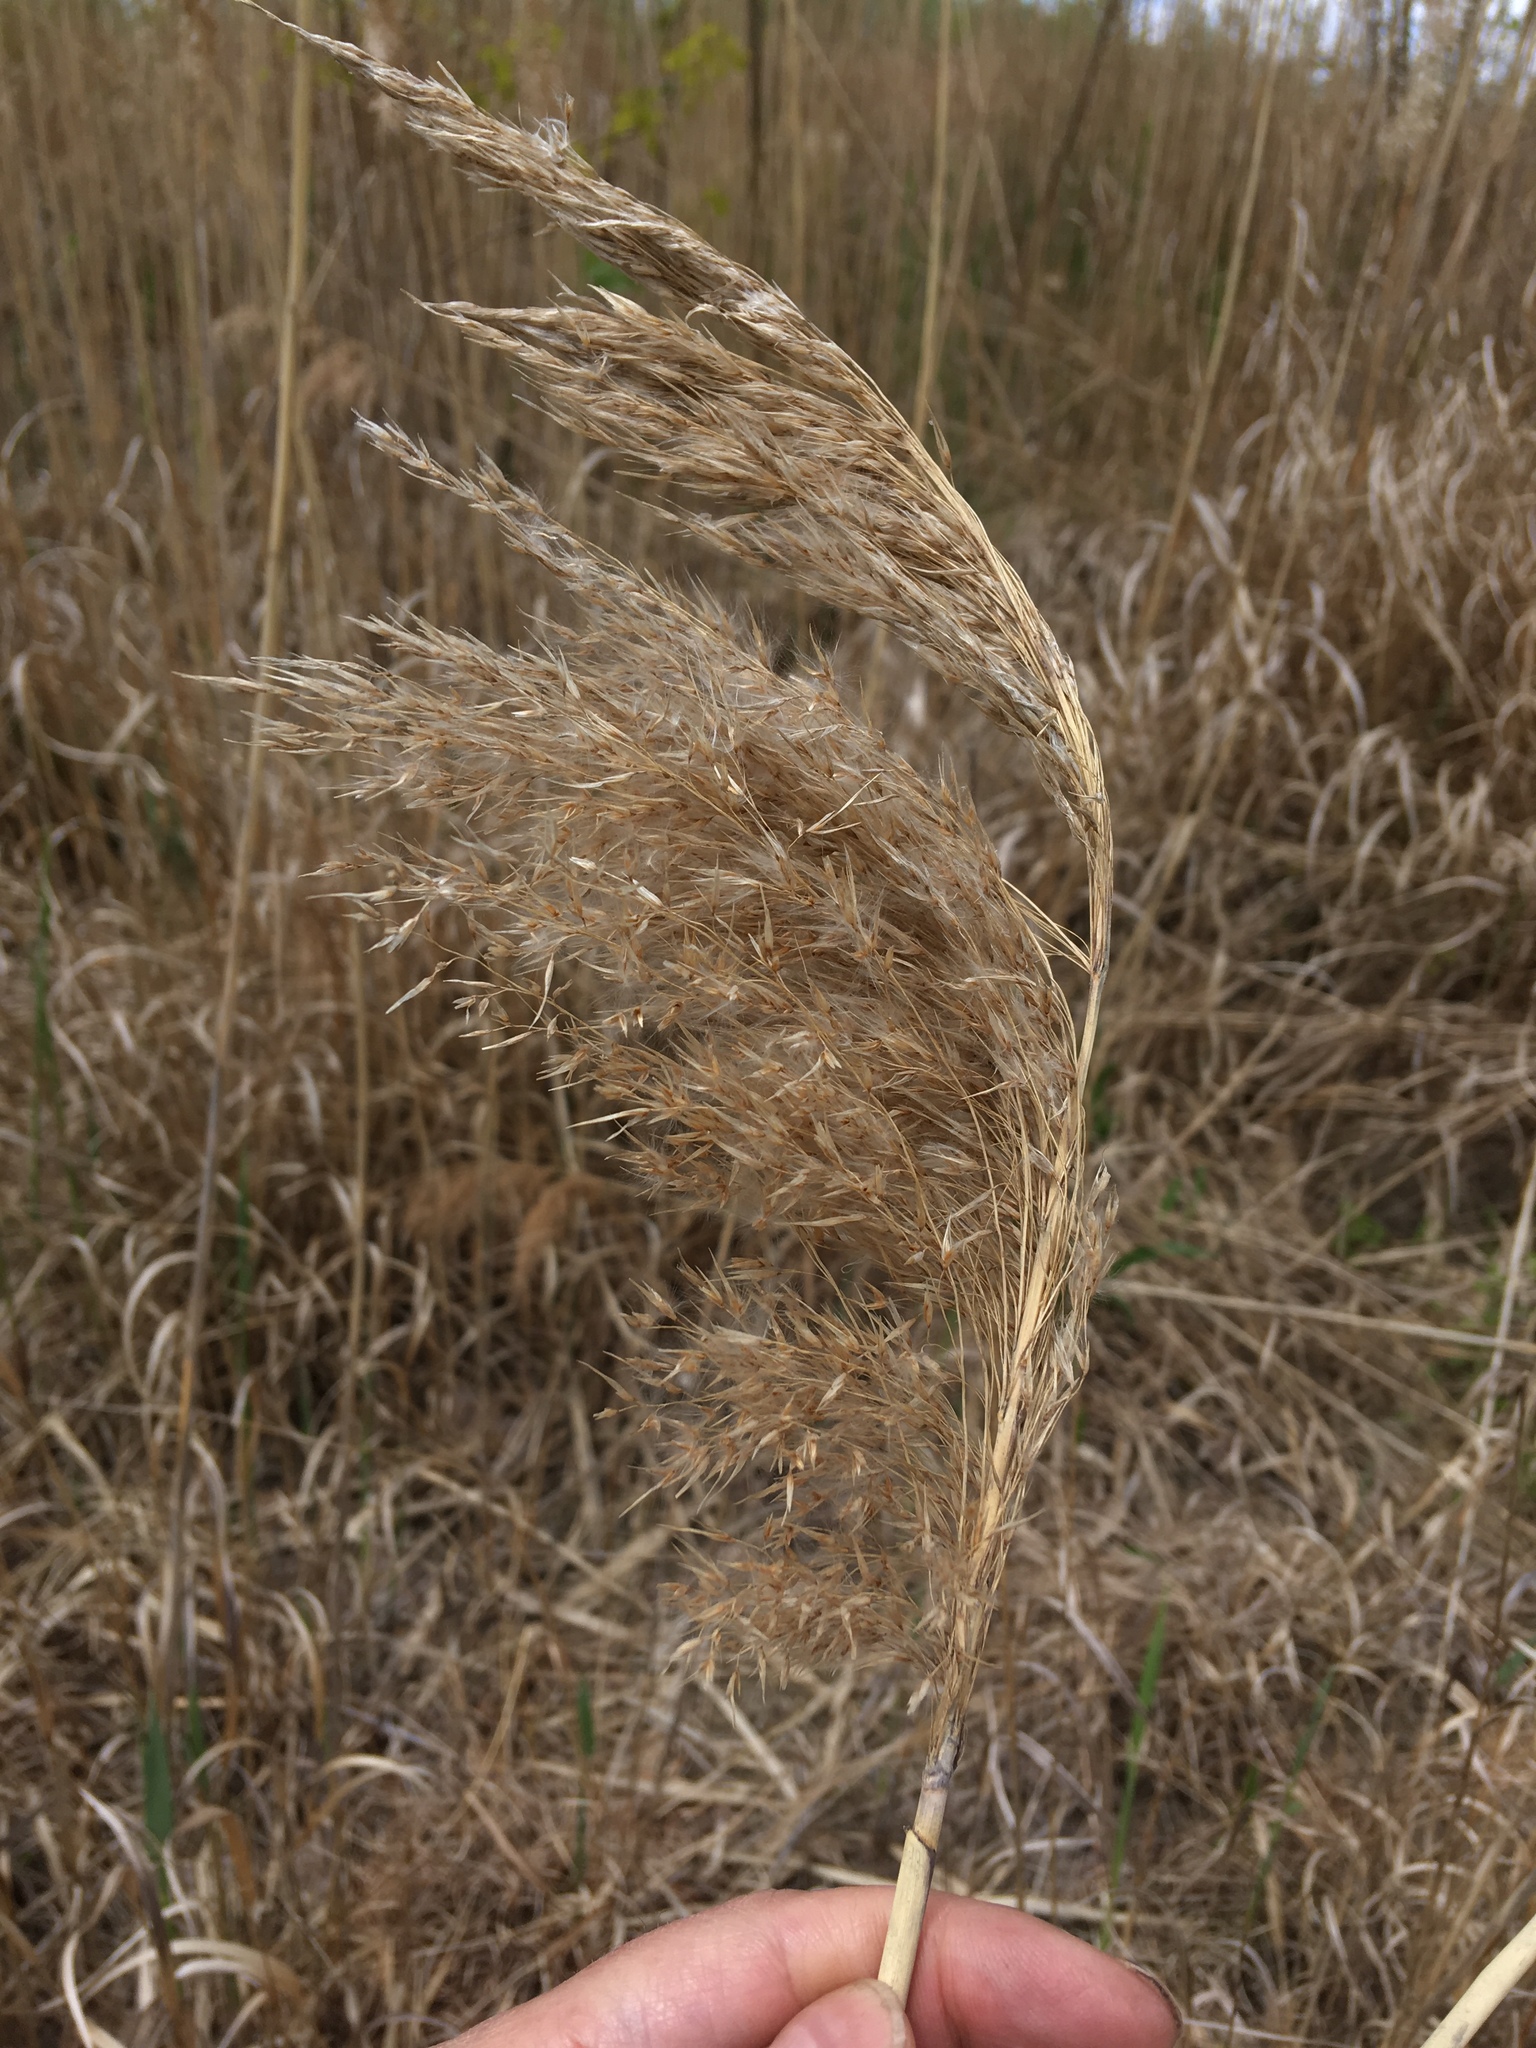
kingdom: Plantae
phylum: Tracheophyta
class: Liliopsida
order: Poales
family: Poaceae
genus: Phragmites
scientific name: Phragmites australis
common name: Common reed
